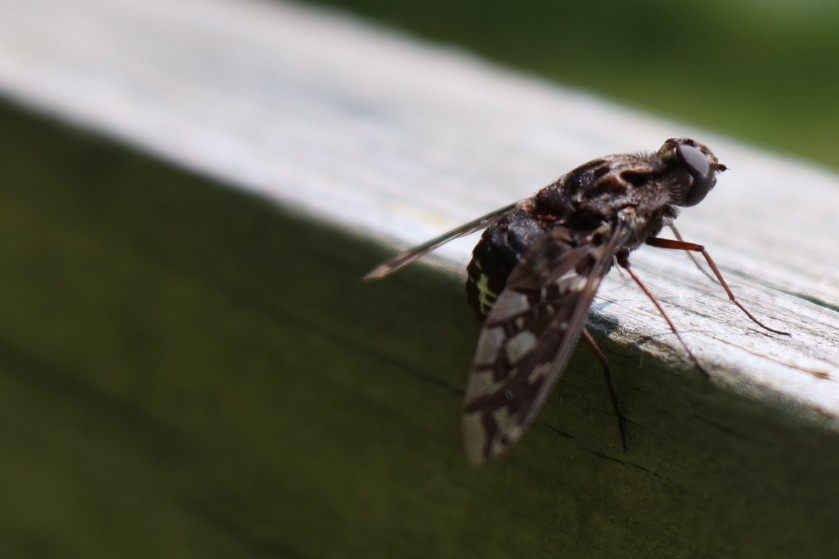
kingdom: Animalia
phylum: Arthropoda
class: Insecta
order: Diptera
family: Bombyliidae
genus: Xenox
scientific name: Xenox tigrinus
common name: Tiger bee fly
